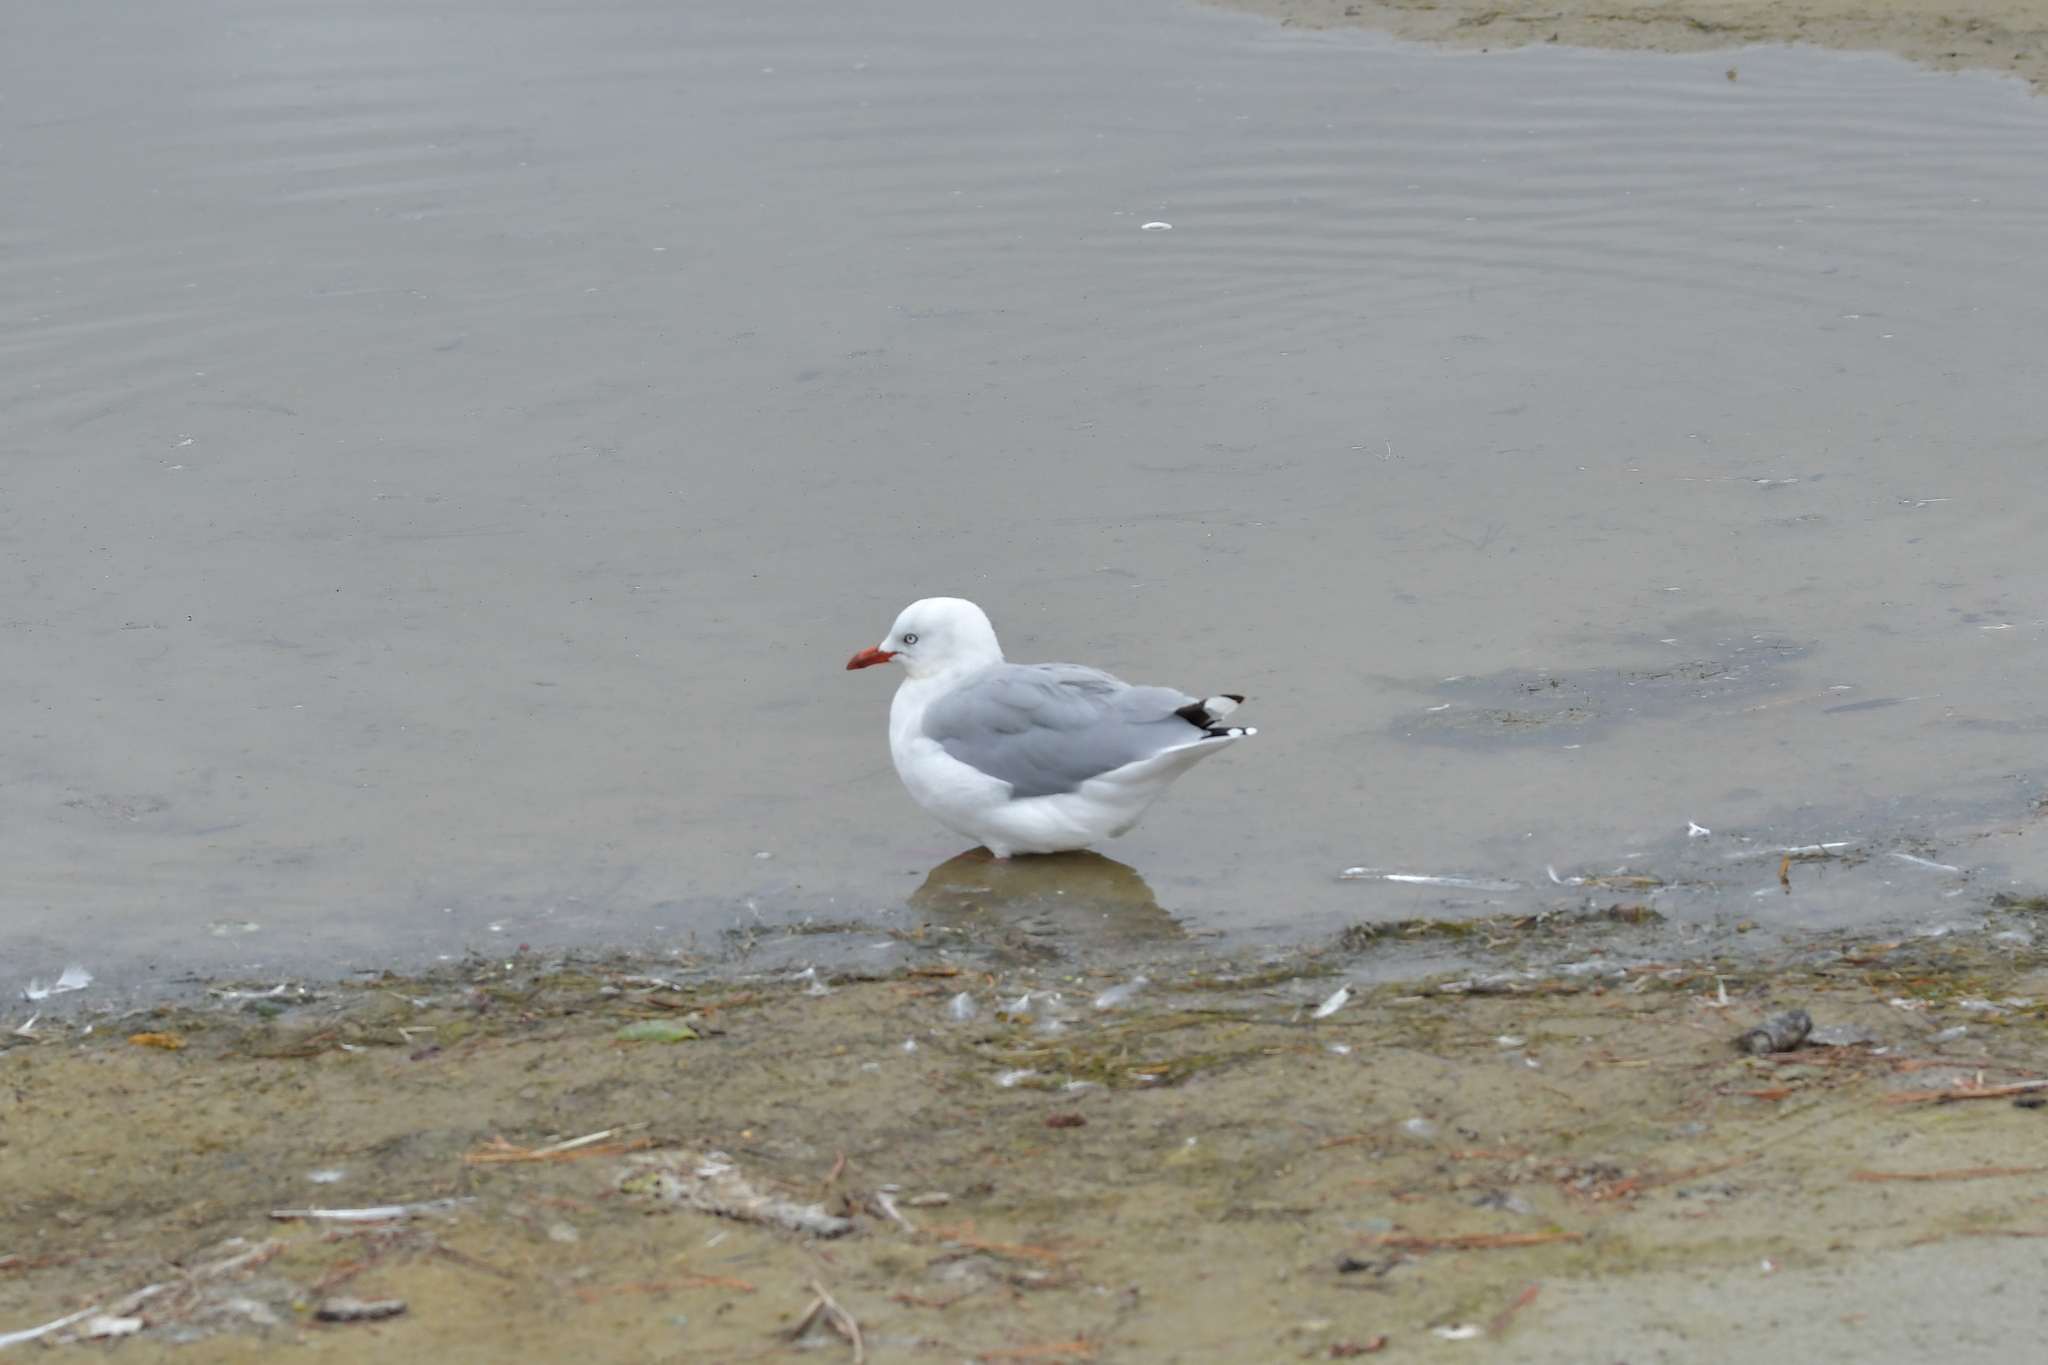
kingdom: Animalia
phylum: Chordata
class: Aves
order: Charadriiformes
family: Laridae
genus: Chroicocephalus
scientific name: Chroicocephalus novaehollandiae
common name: Silver gull
